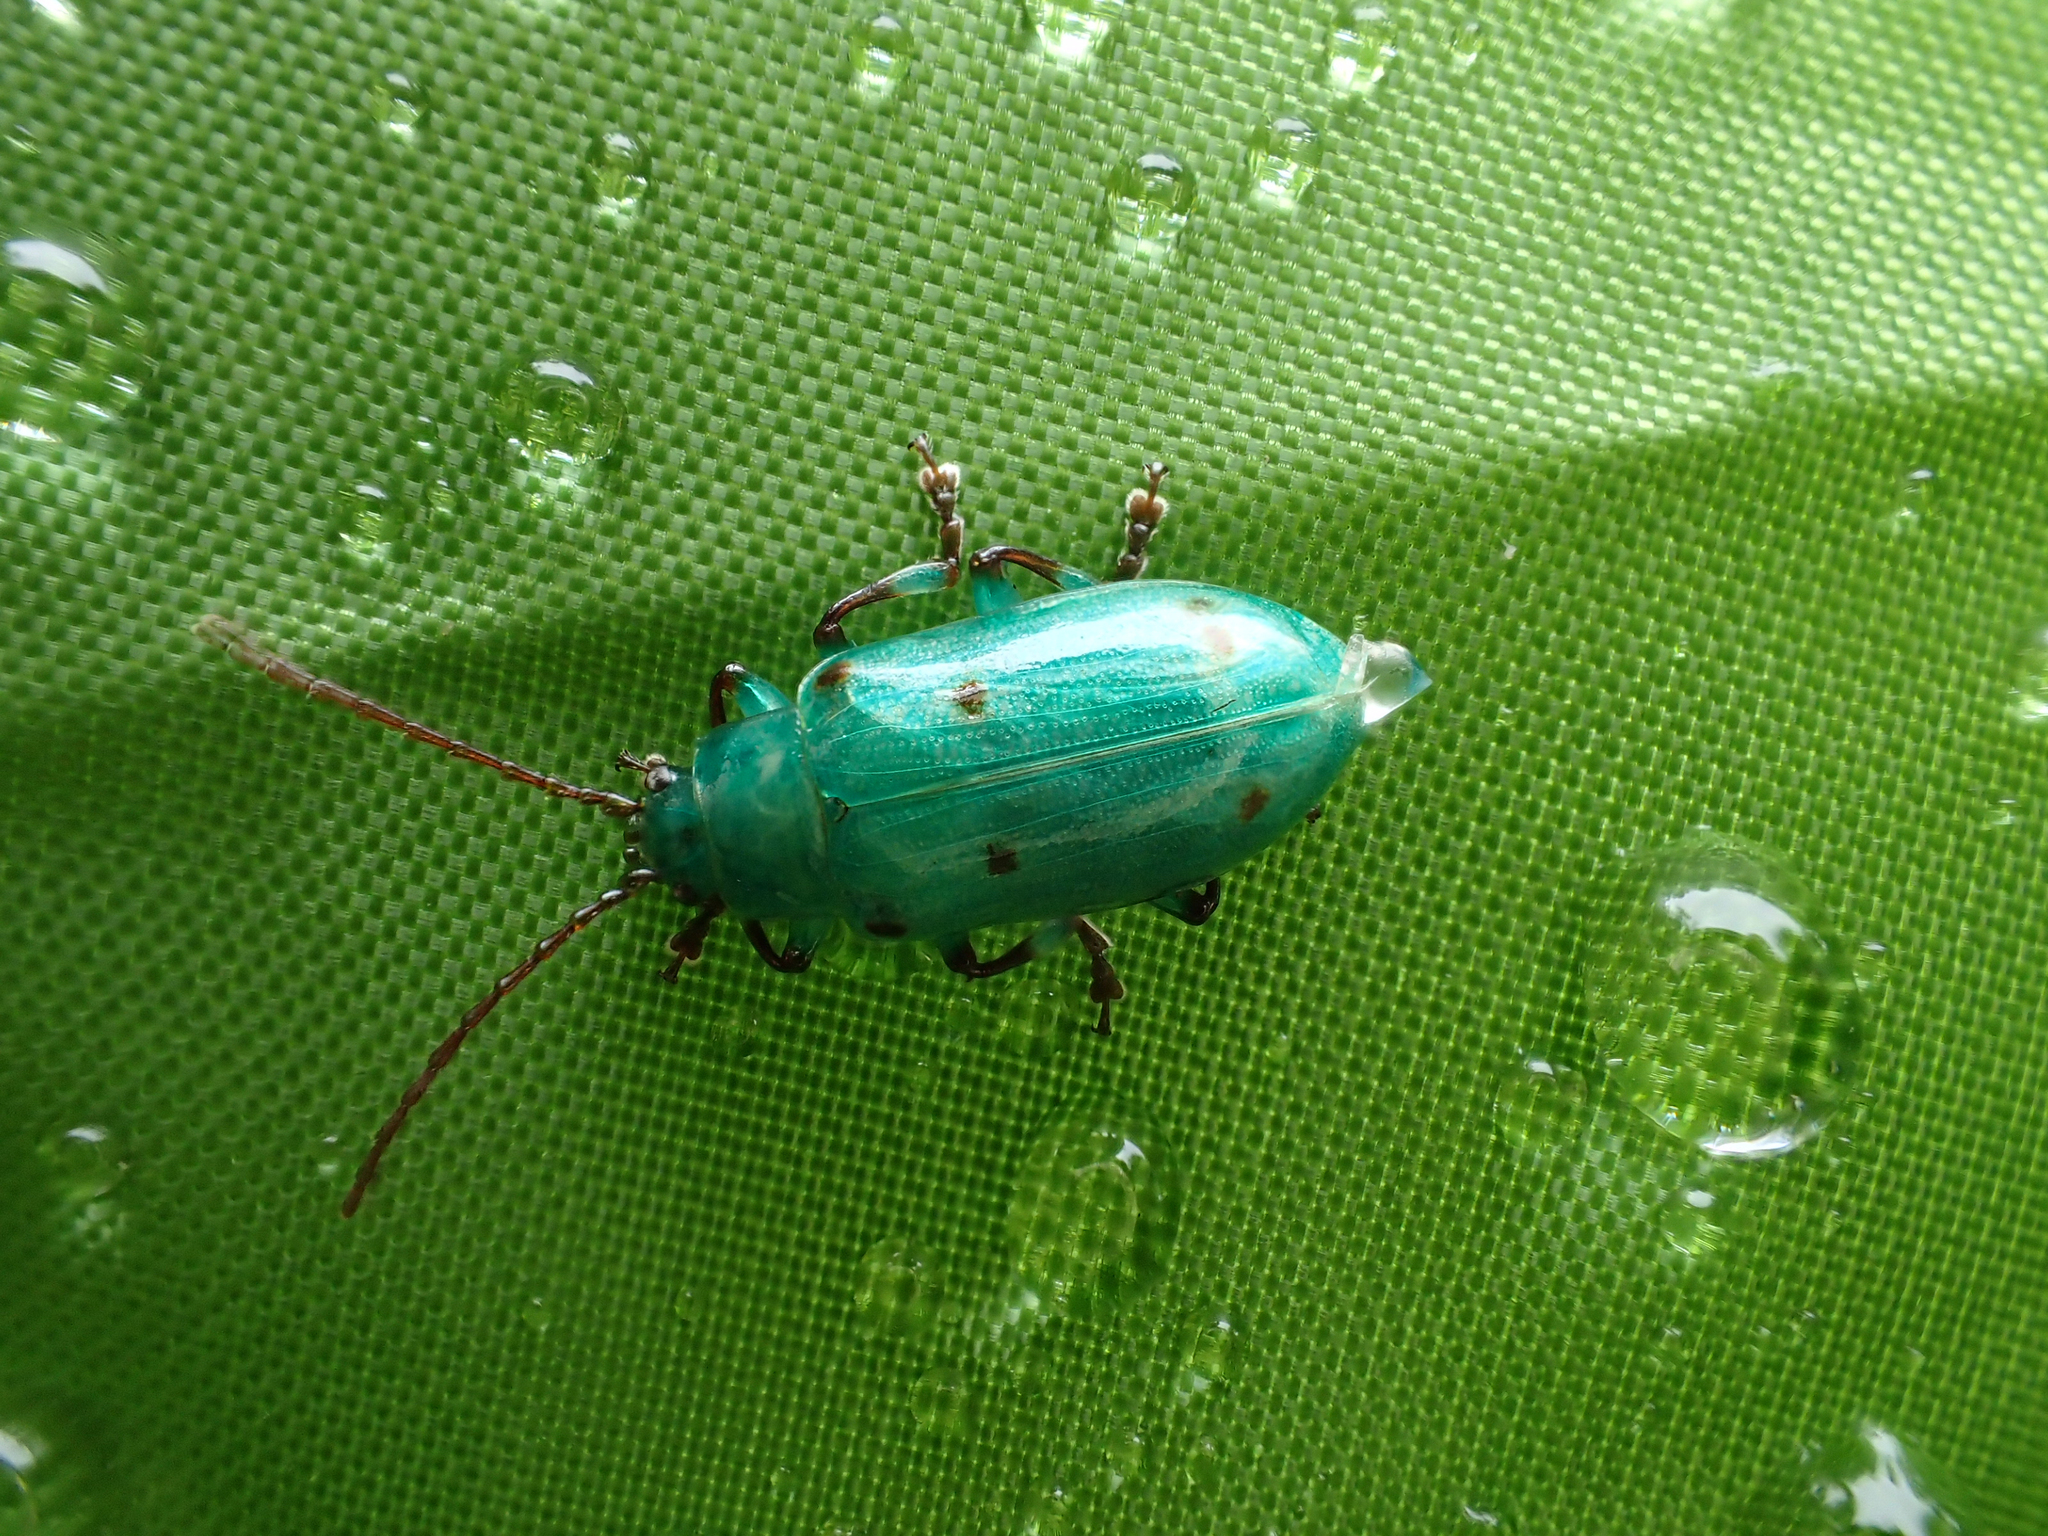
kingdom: Animalia
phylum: Arthropoda
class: Insecta
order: Coleoptera
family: Chrysomelidae
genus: Eulina
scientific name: Eulina
